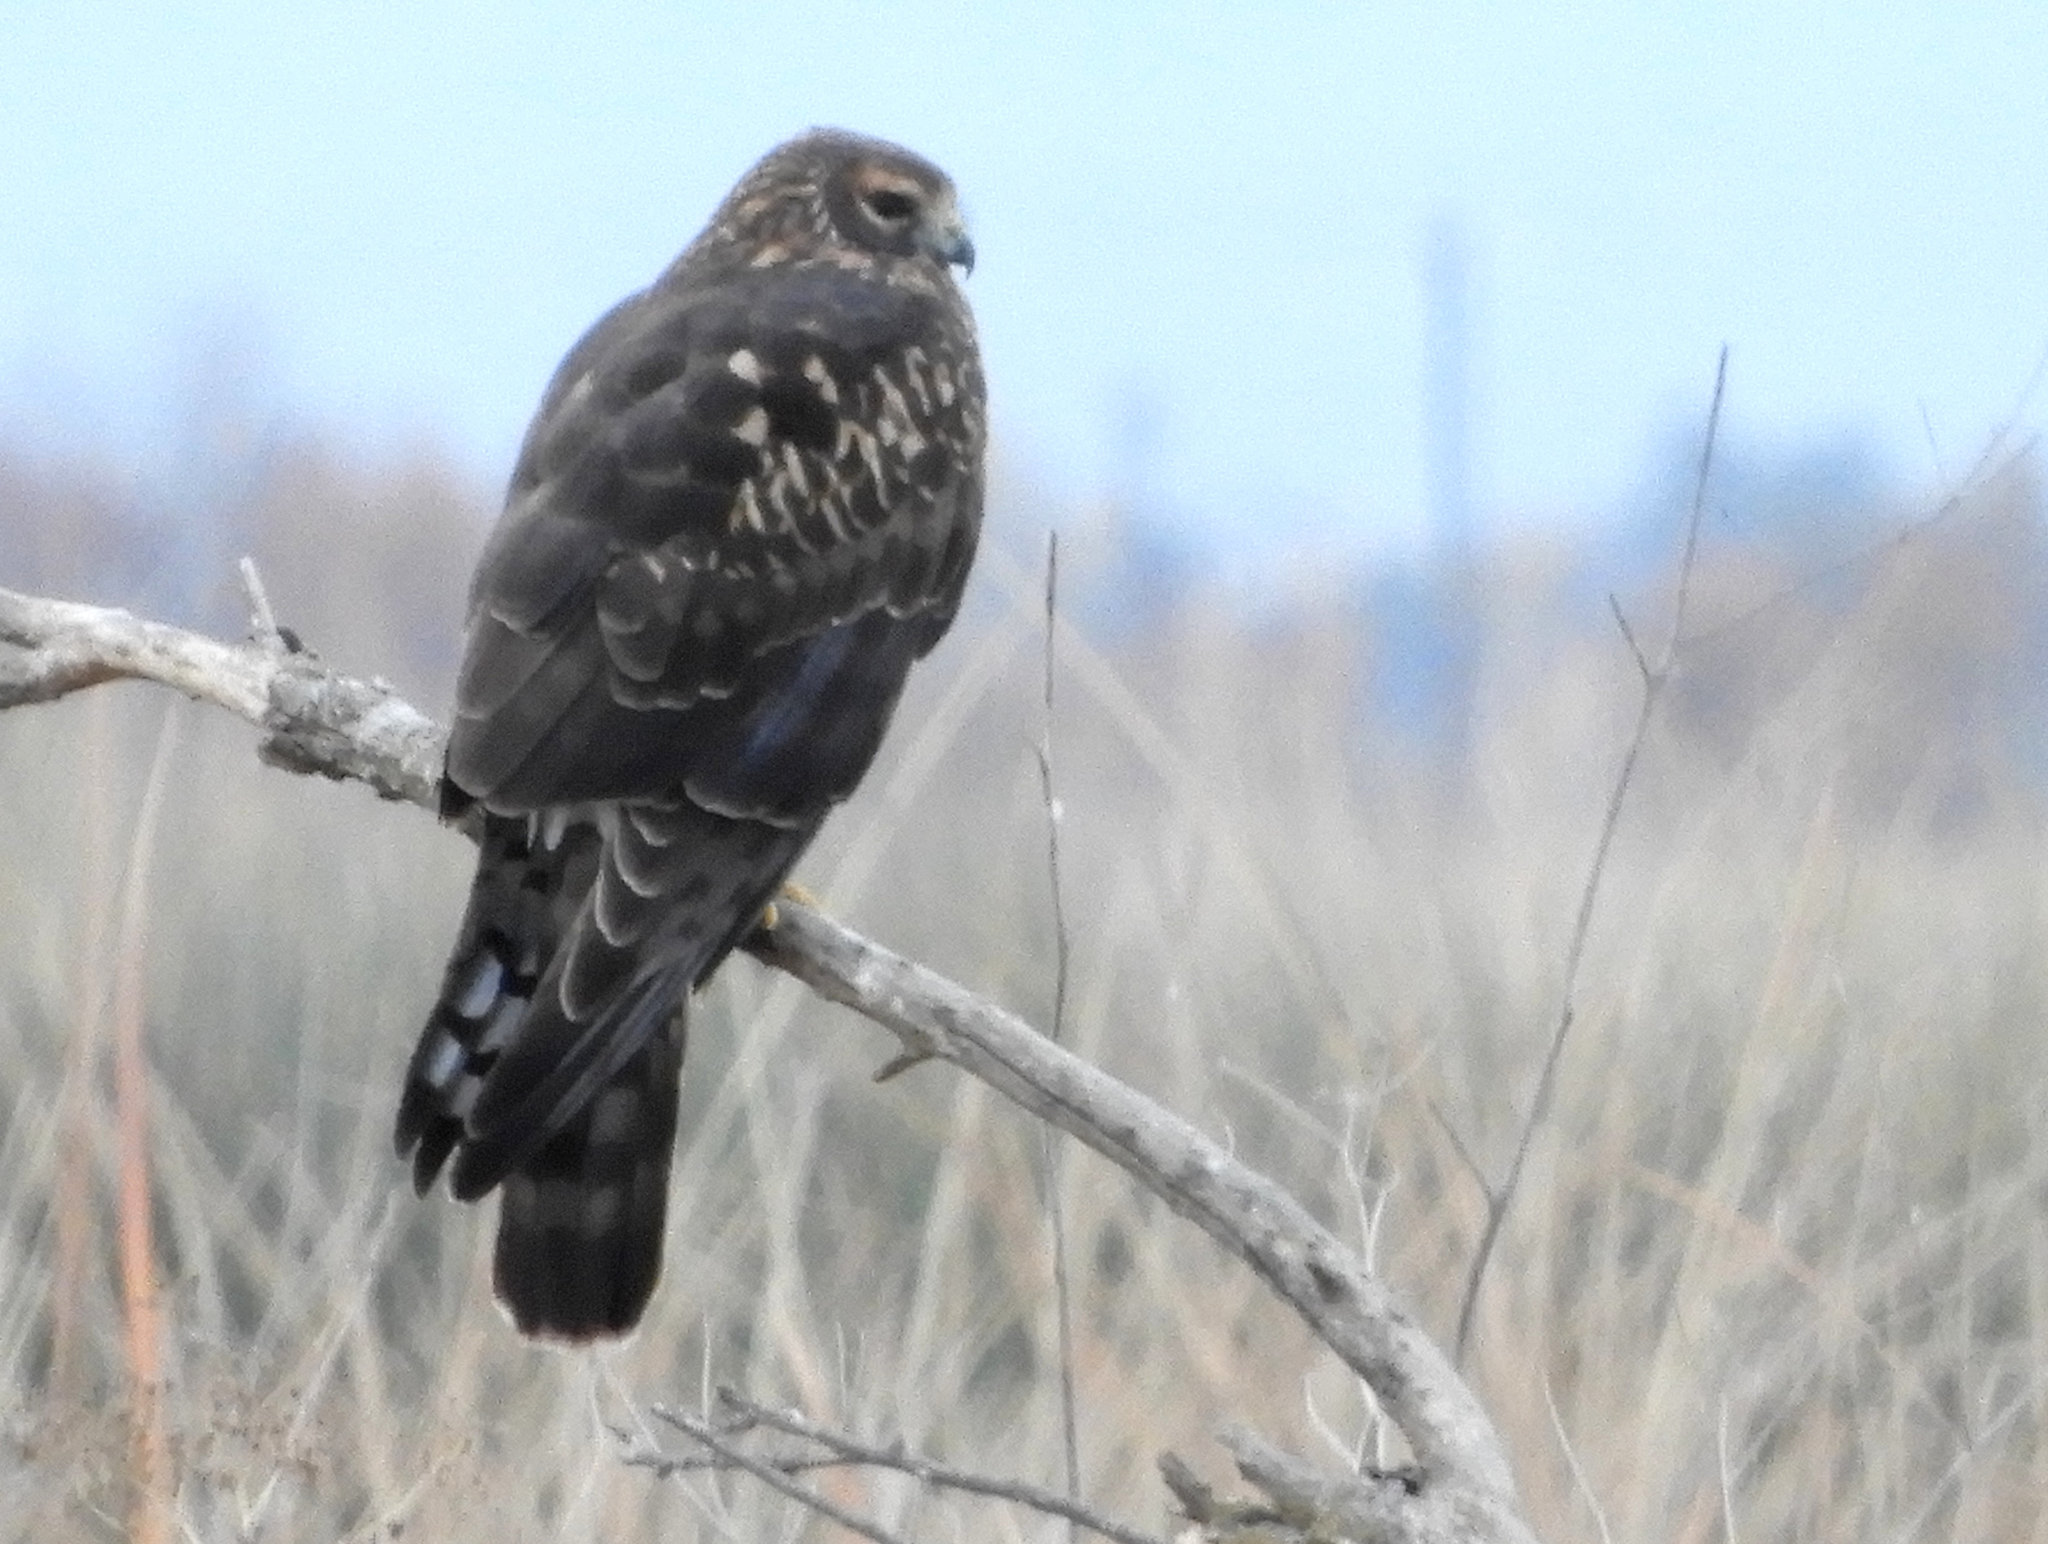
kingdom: Animalia
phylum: Chordata
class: Aves
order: Accipitriformes
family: Accipitridae
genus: Circus
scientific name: Circus cyaneus
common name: Hen harrier
